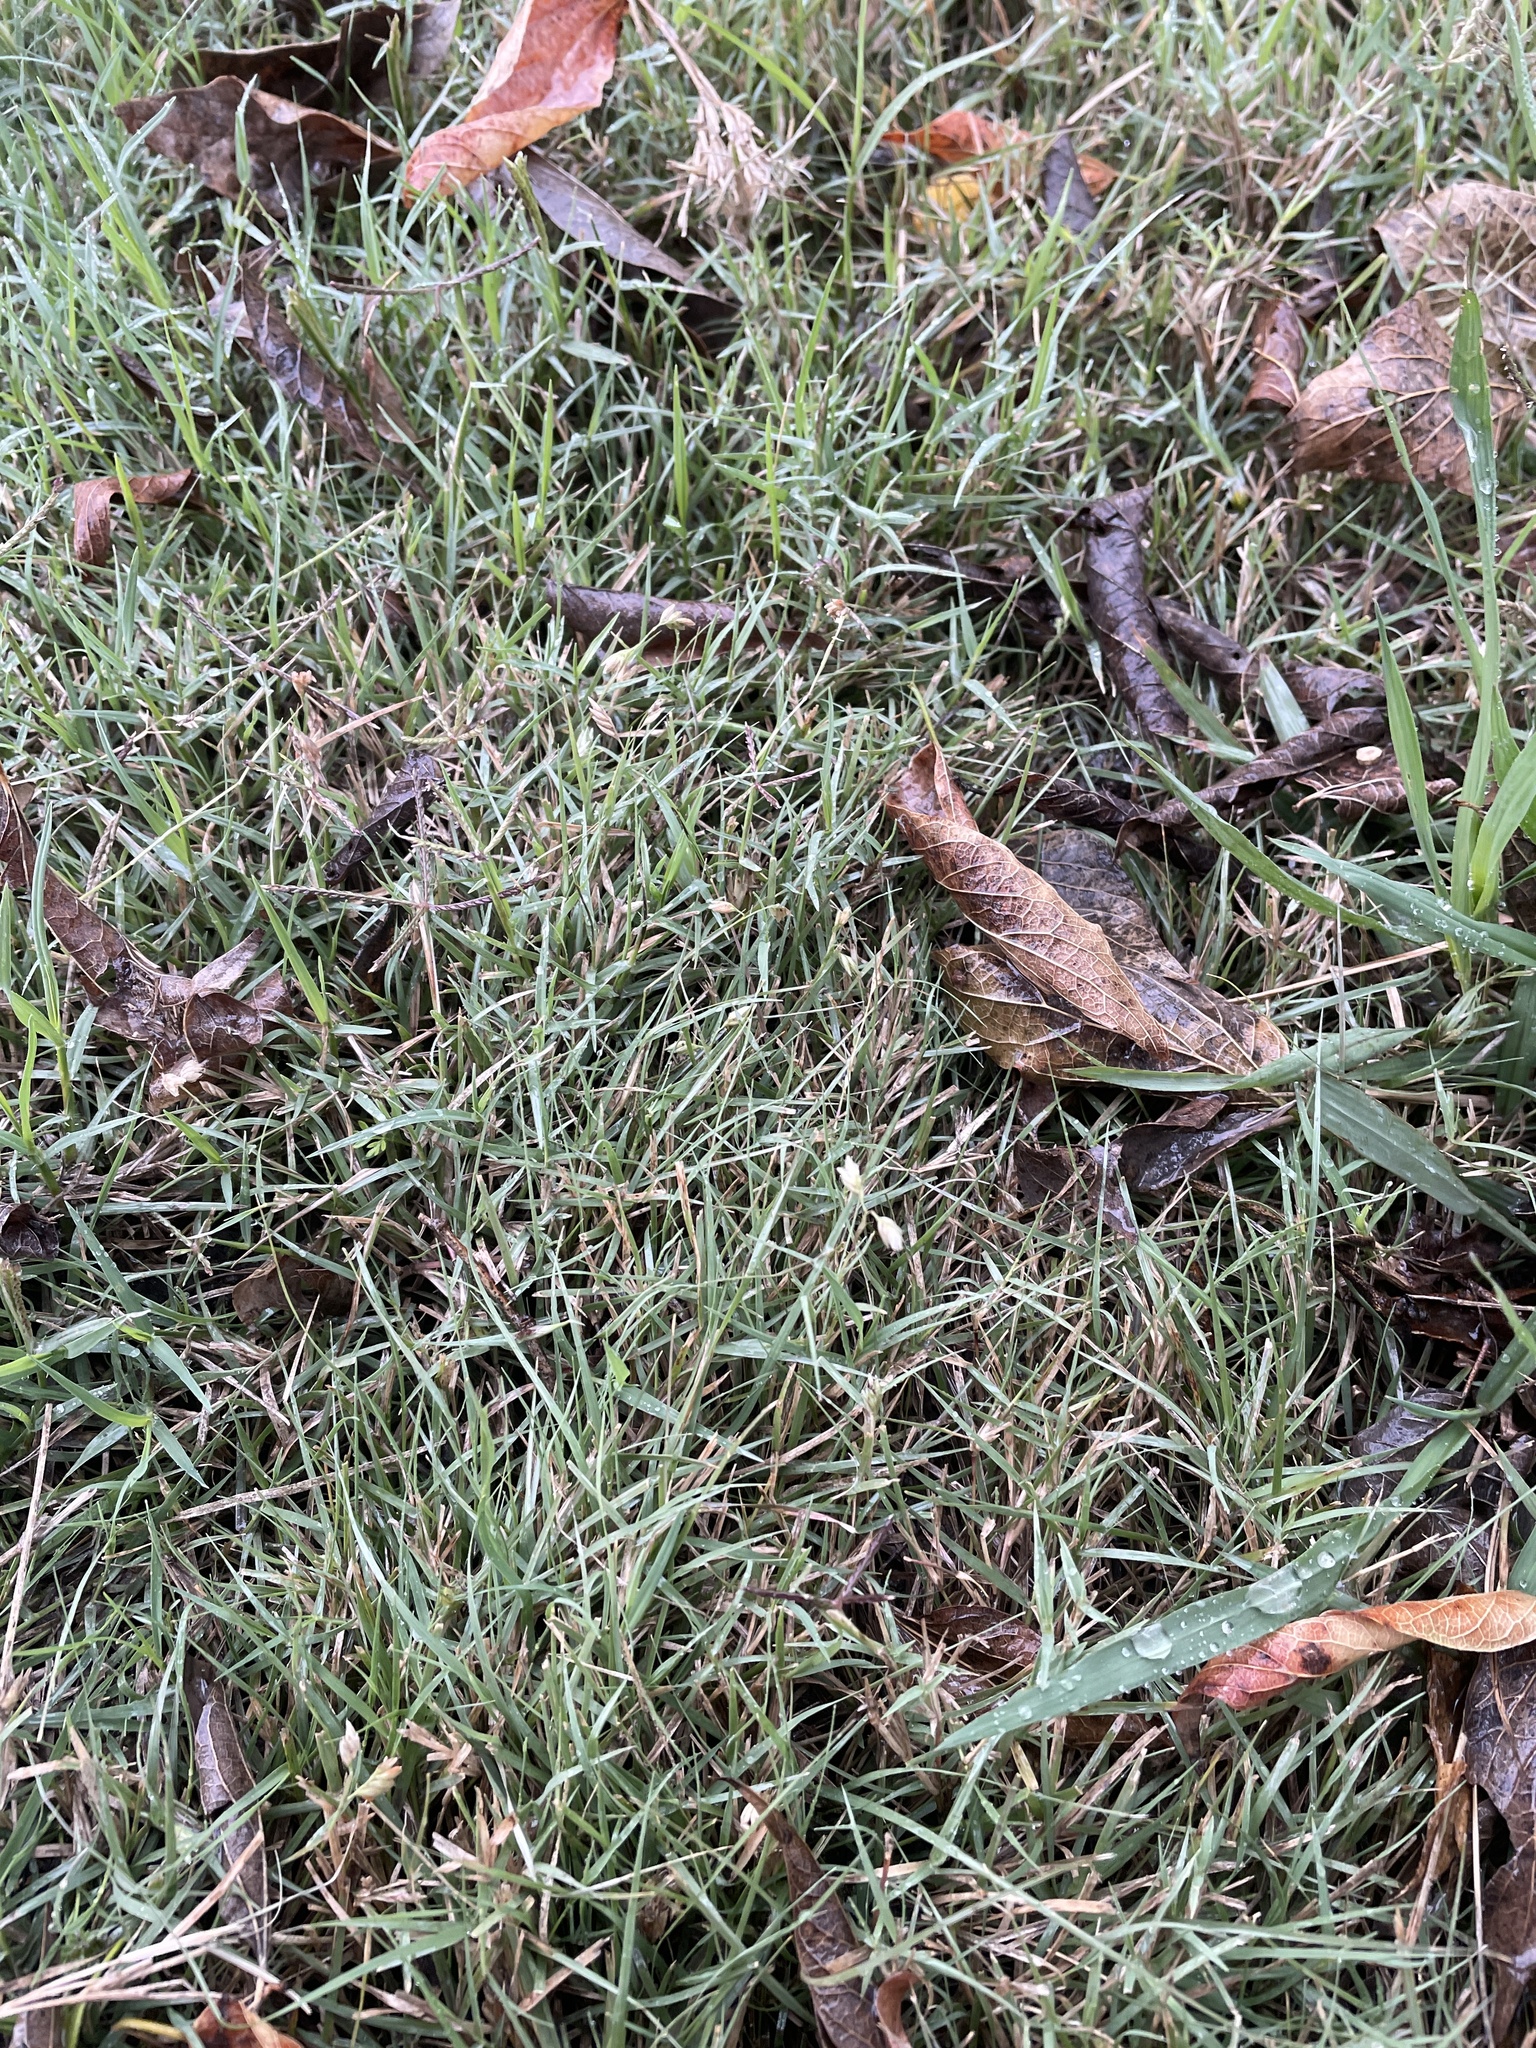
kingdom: Plantae
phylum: Tracheophyta
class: Liliopsida
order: Poales
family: Poaceae
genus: Bouteloua
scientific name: Bouteloua dactyloides
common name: Buffalo grass
